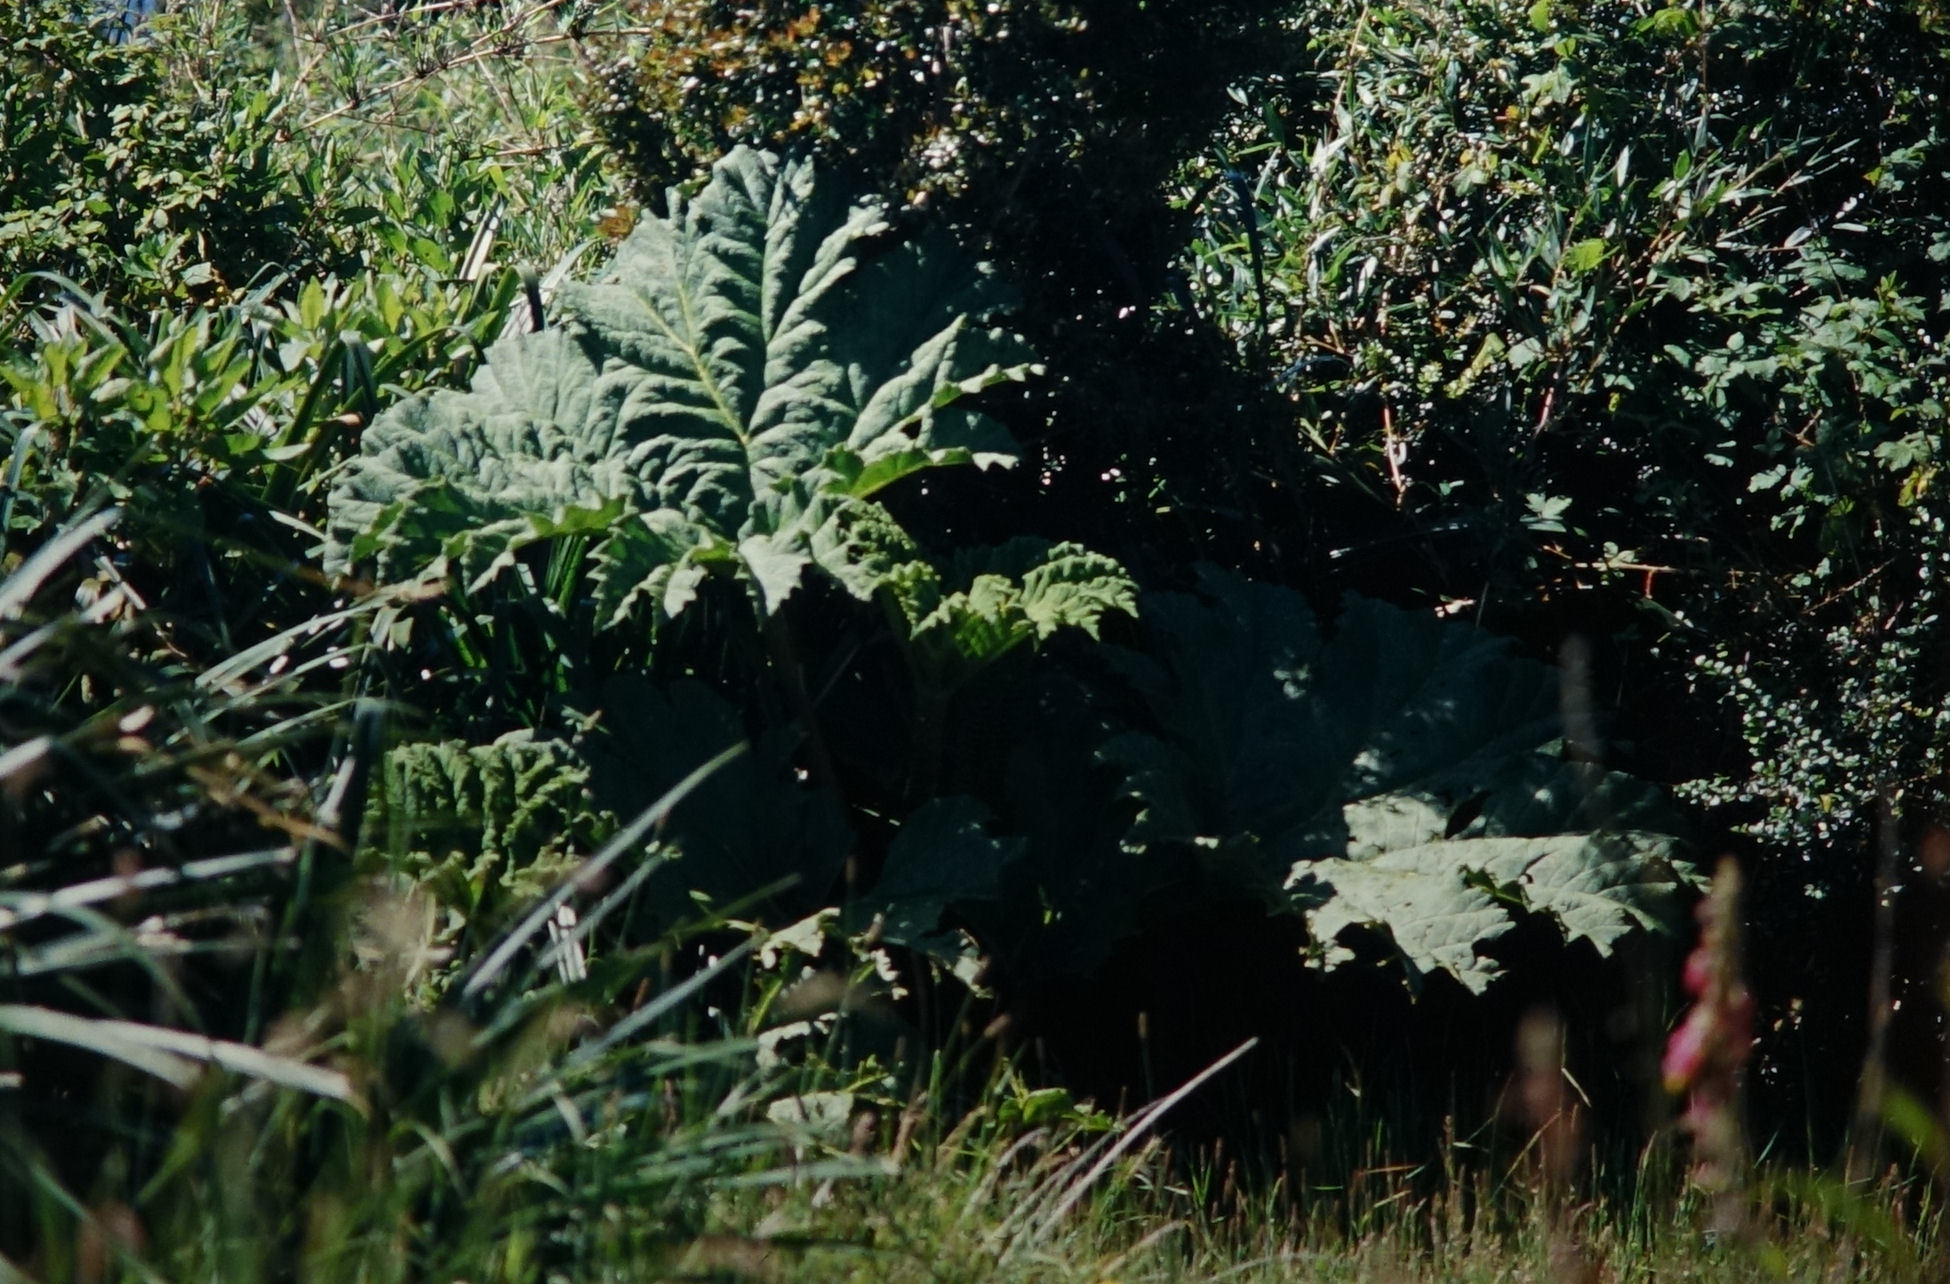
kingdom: Plantae
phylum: Tracheophyta
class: Magnoliopsida
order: Gunnerales
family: Gunneraceae
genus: Gunnera
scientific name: Gunnera tinctoria
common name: Giant-rhubarb
